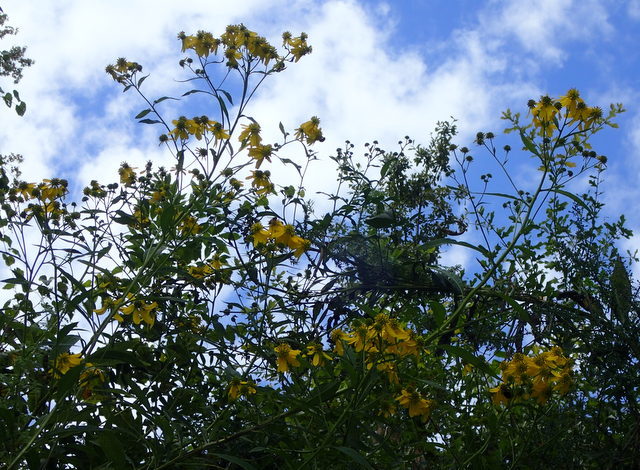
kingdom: Plantae
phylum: Tracheophyta
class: Magnoliopsida
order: Asterales
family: Asteraceae
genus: Verbesina
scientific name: Verbesina alternifolia
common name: Wingstem
